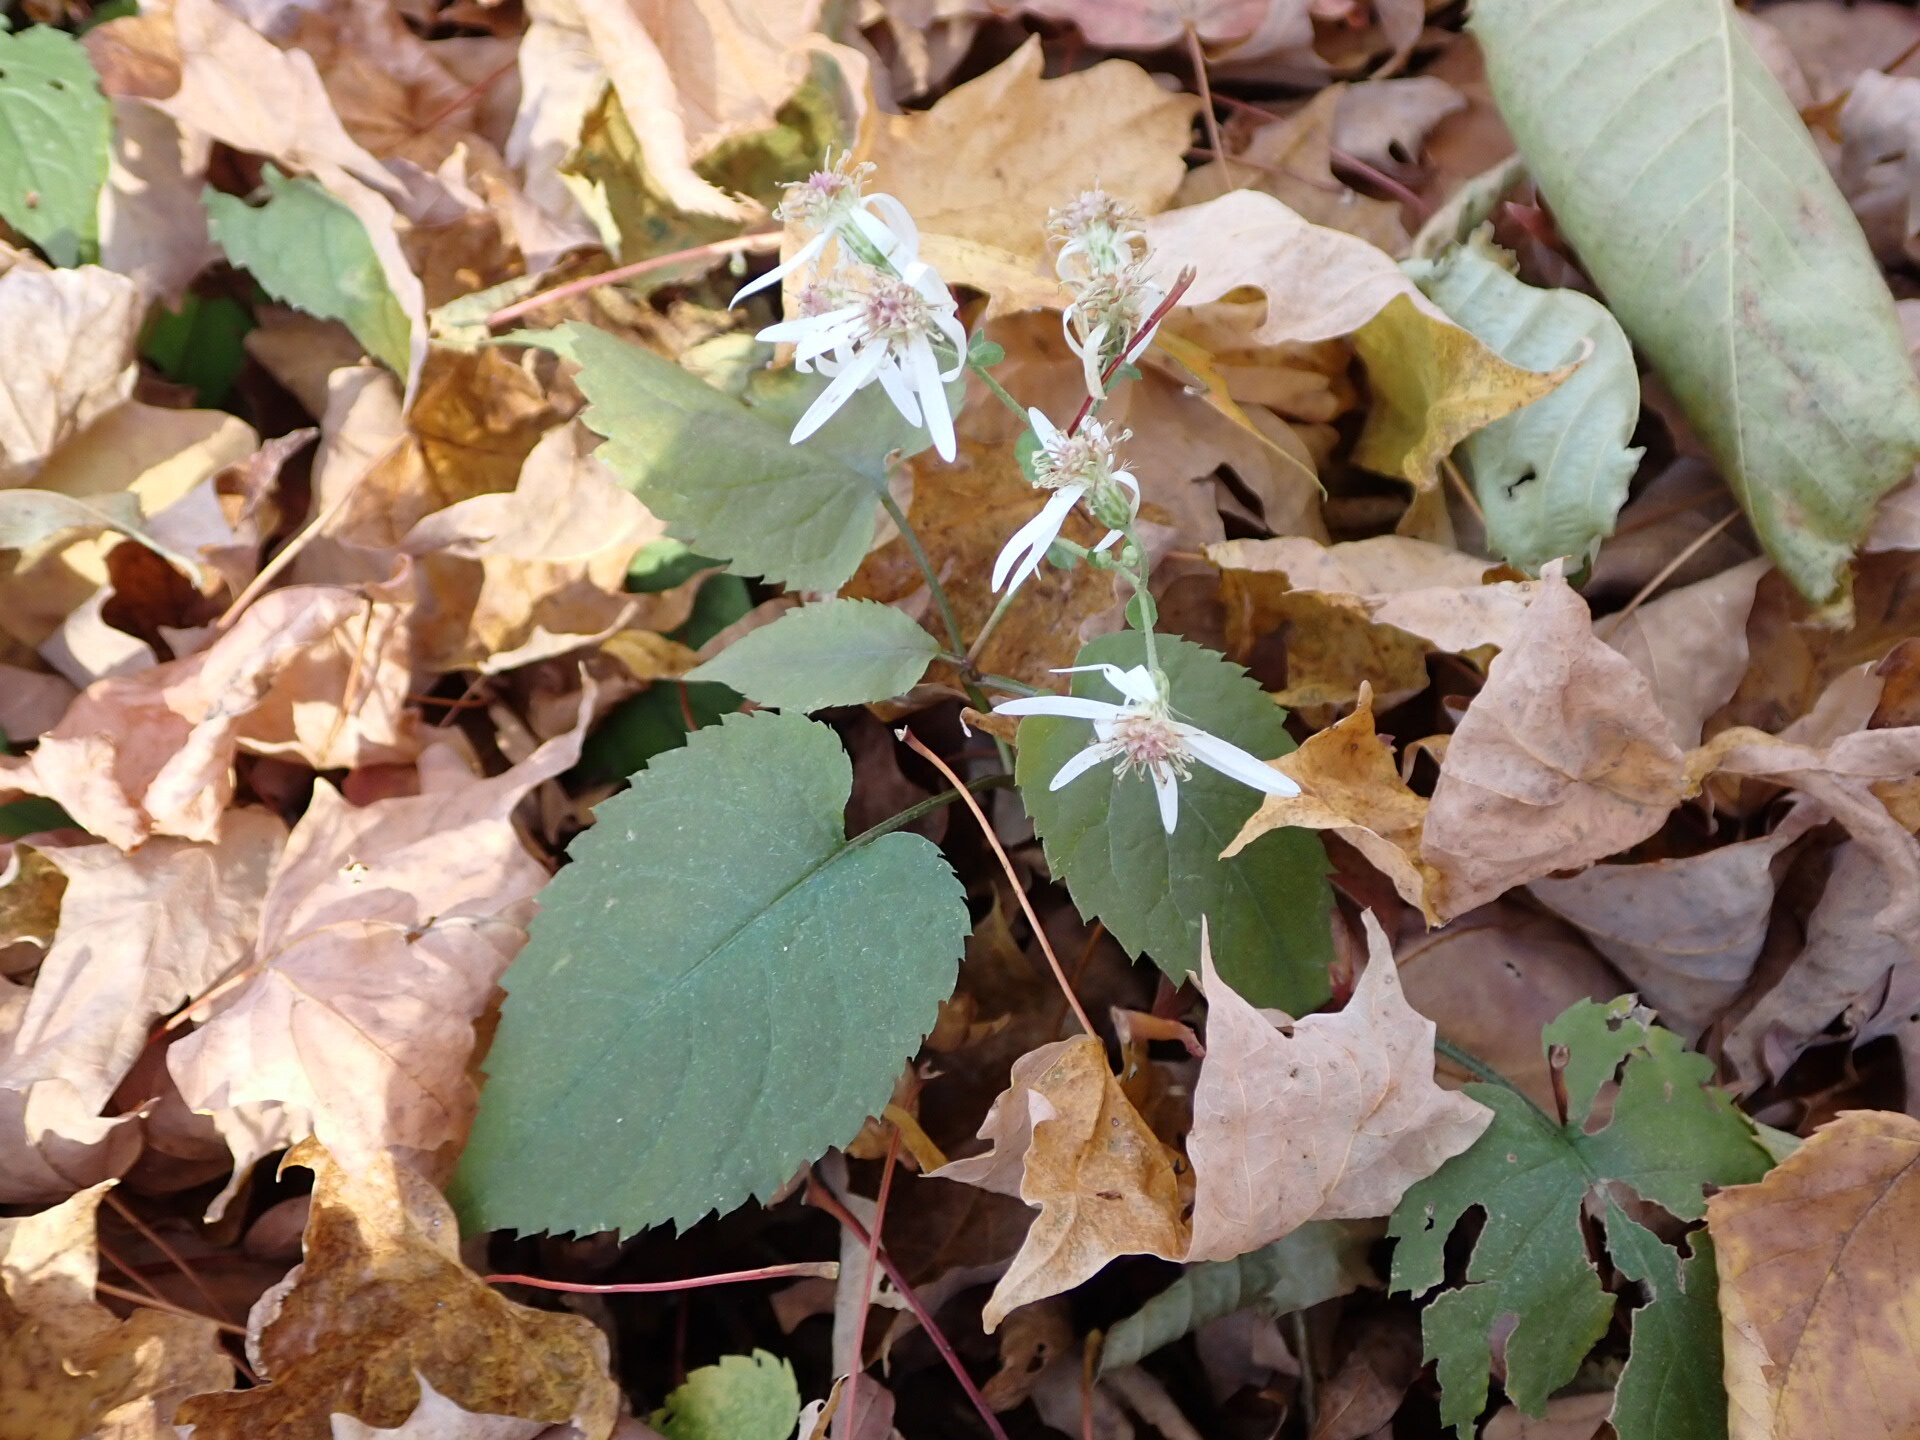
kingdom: Plantae
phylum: Tracheophyta
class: Magnoliopsida
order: Asterales
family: Asteraceae
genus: Eurybia
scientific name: Eurybia divaricata
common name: White wood aster
